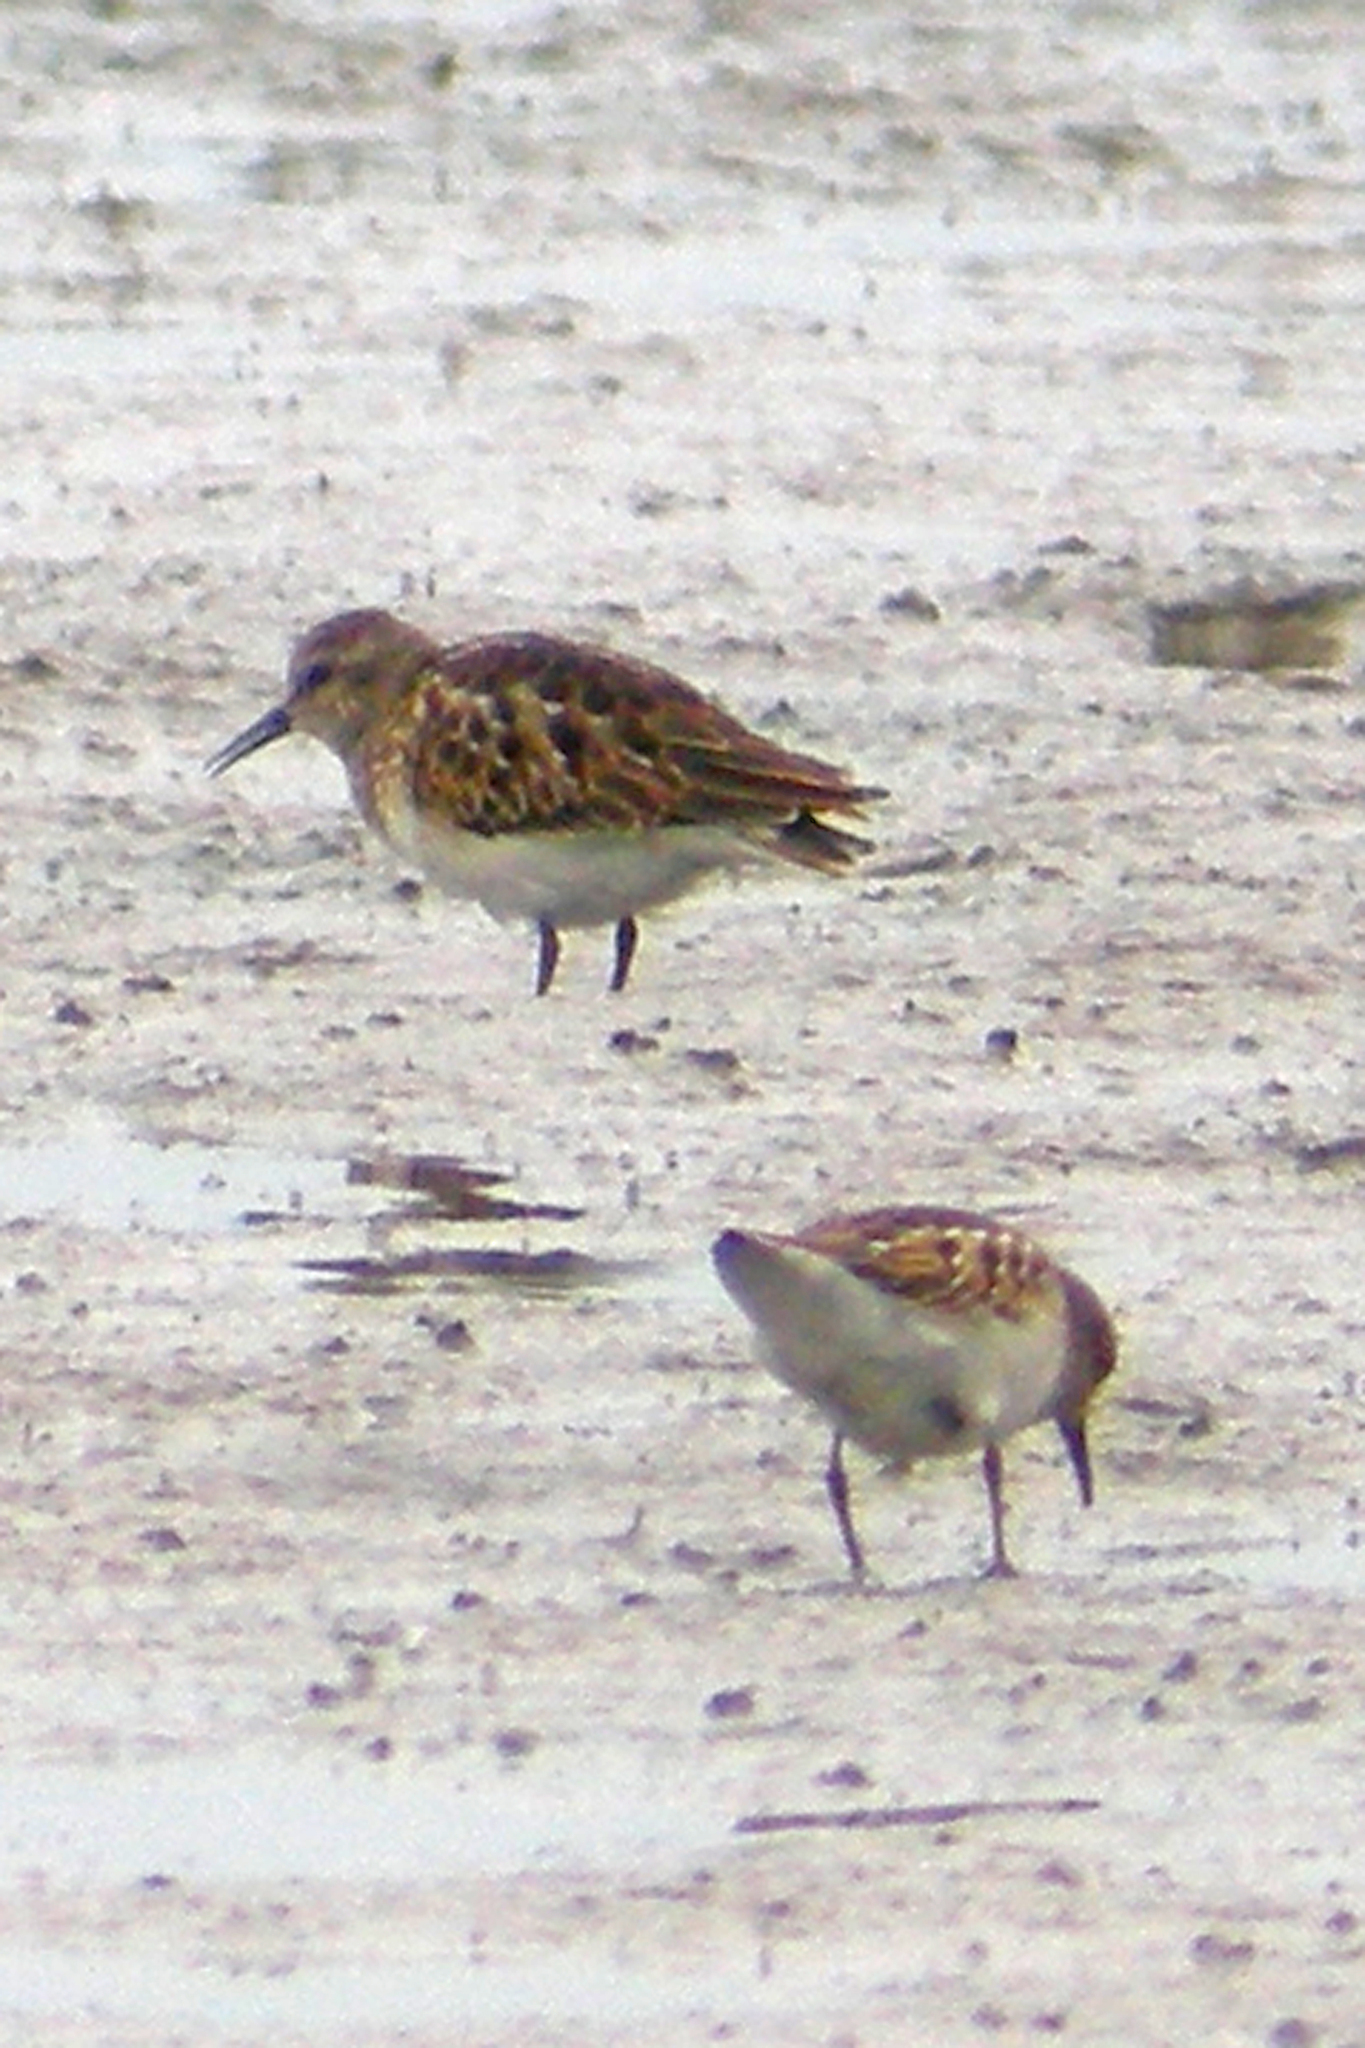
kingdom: Animalia
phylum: Chordata
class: Aves
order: Charadriiformes
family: Scolopacidae
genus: Calidris
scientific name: Calidris minutilla
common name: Least sandpiper
